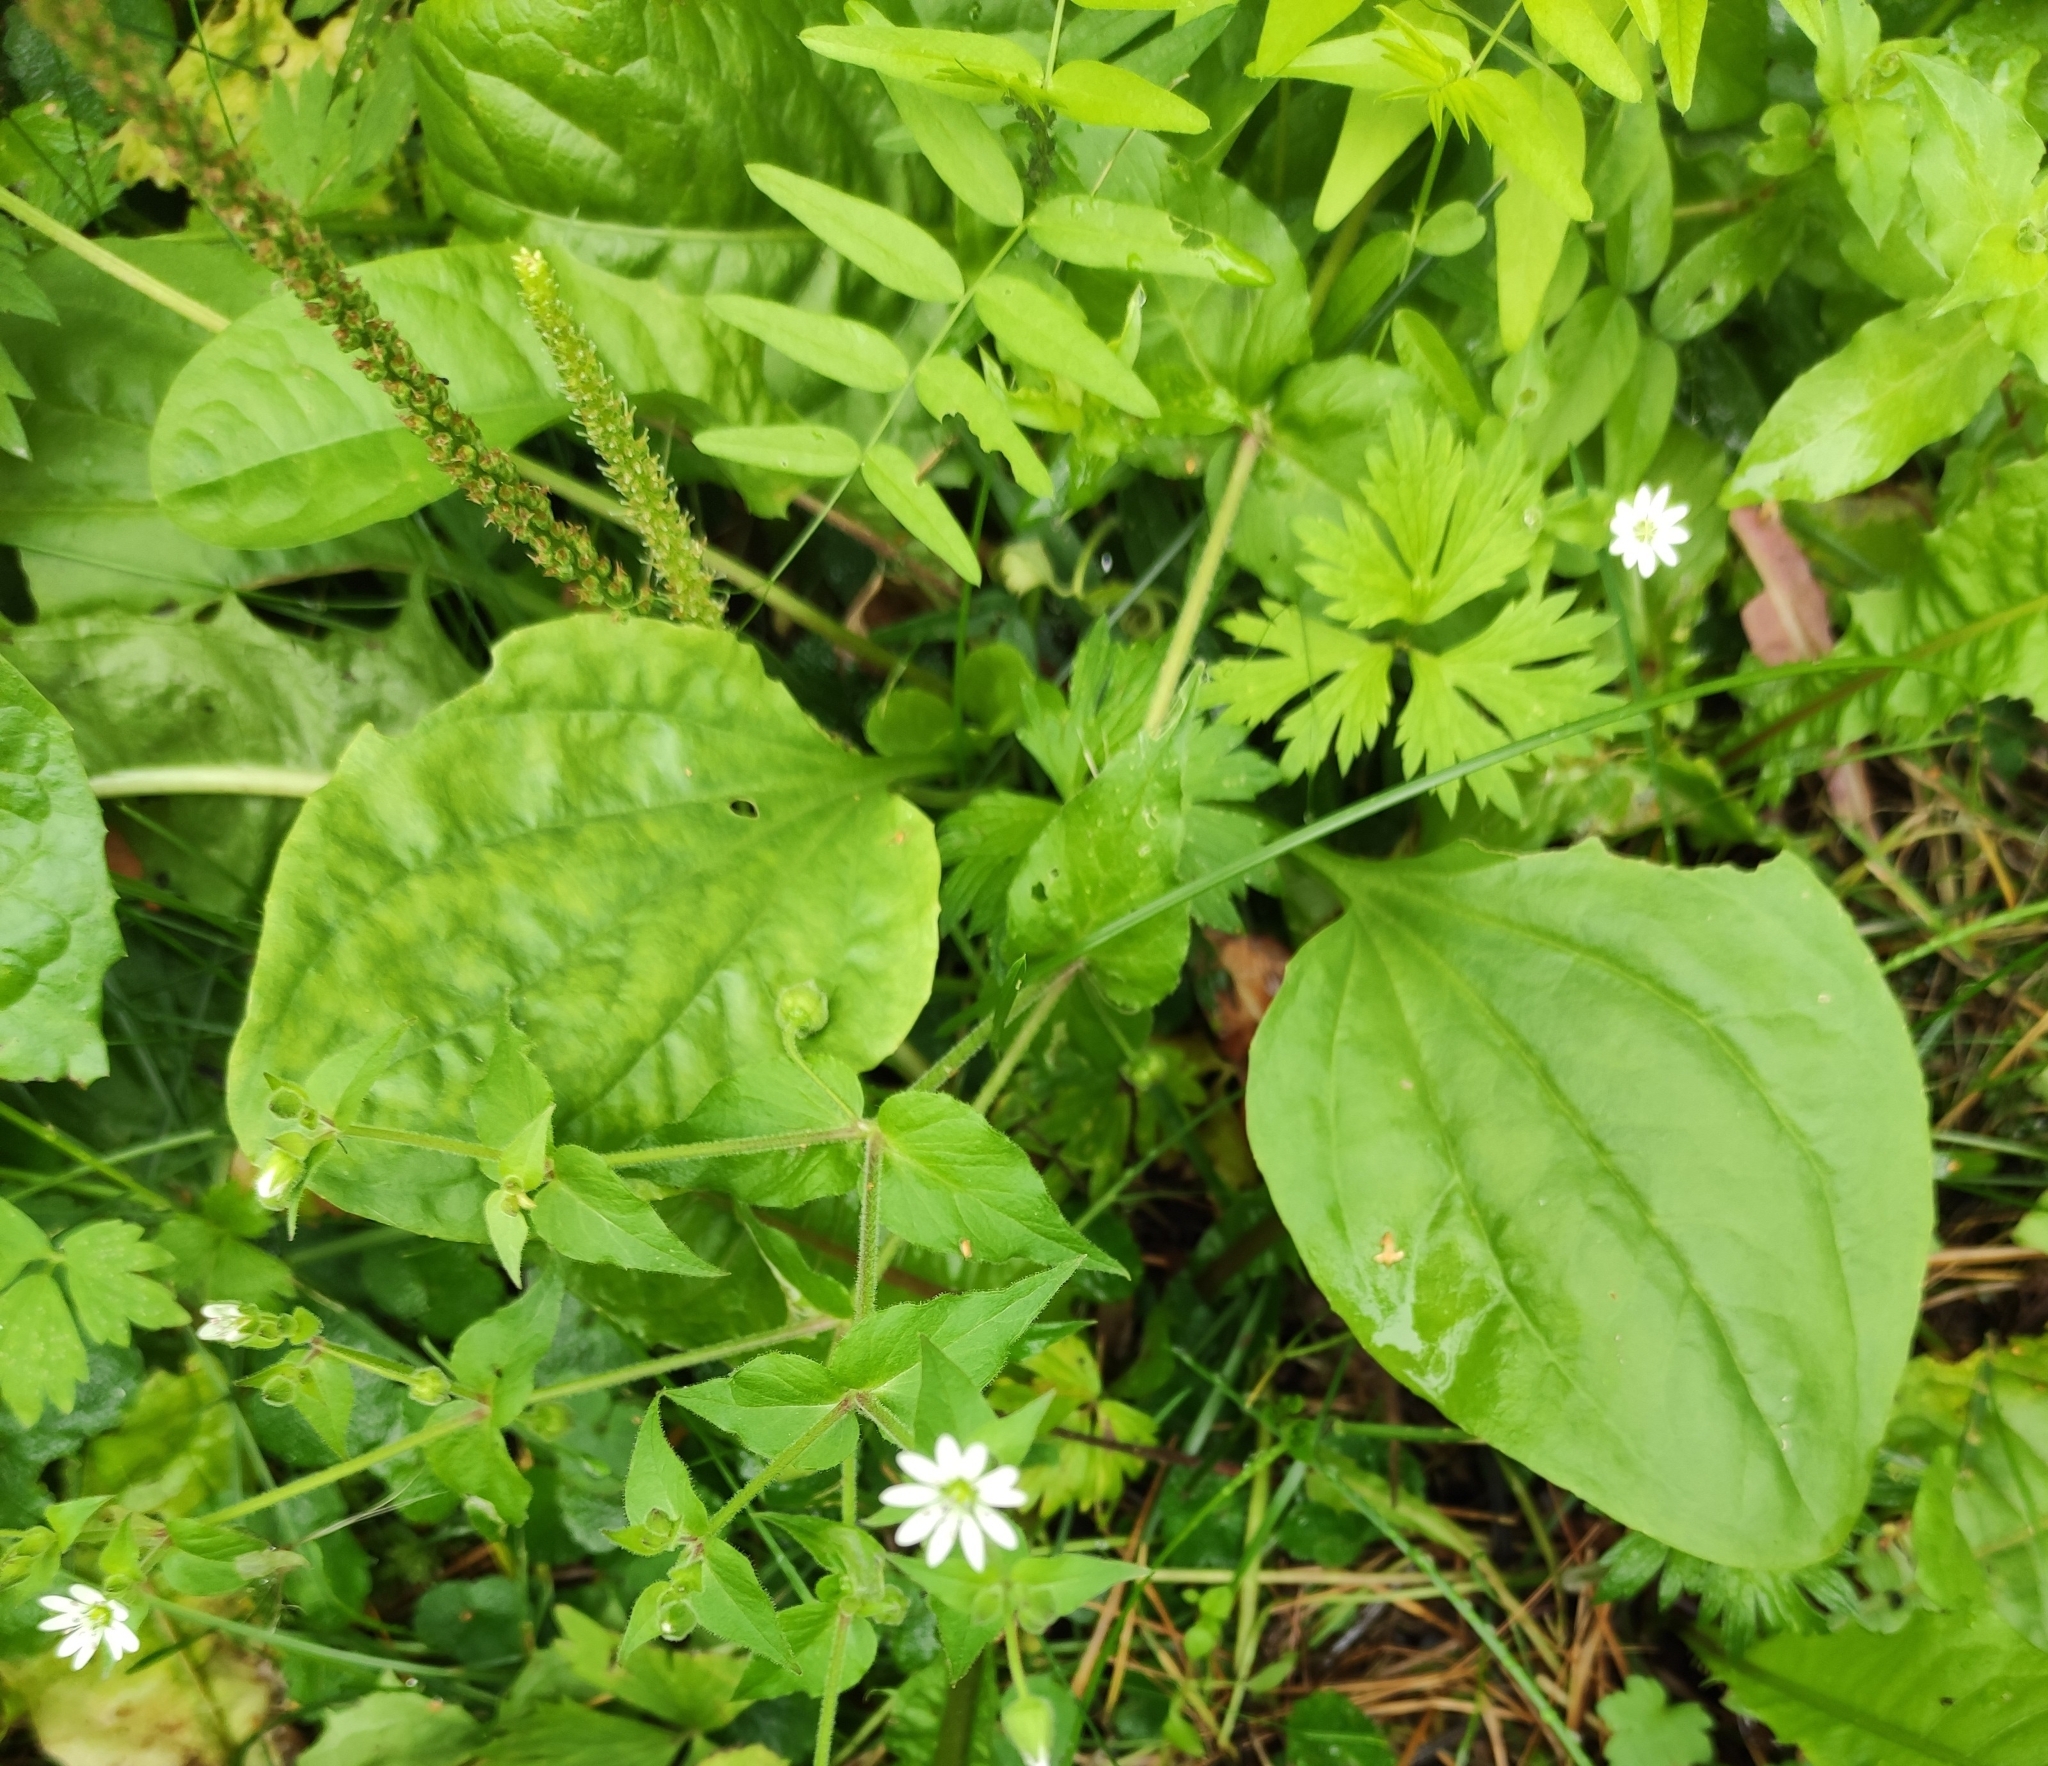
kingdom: Plantae
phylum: Tracheophyta
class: Magnoliopsida
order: Lamiales
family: Plantaginaceae
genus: Plantago
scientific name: Plantago major
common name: Common plantain
